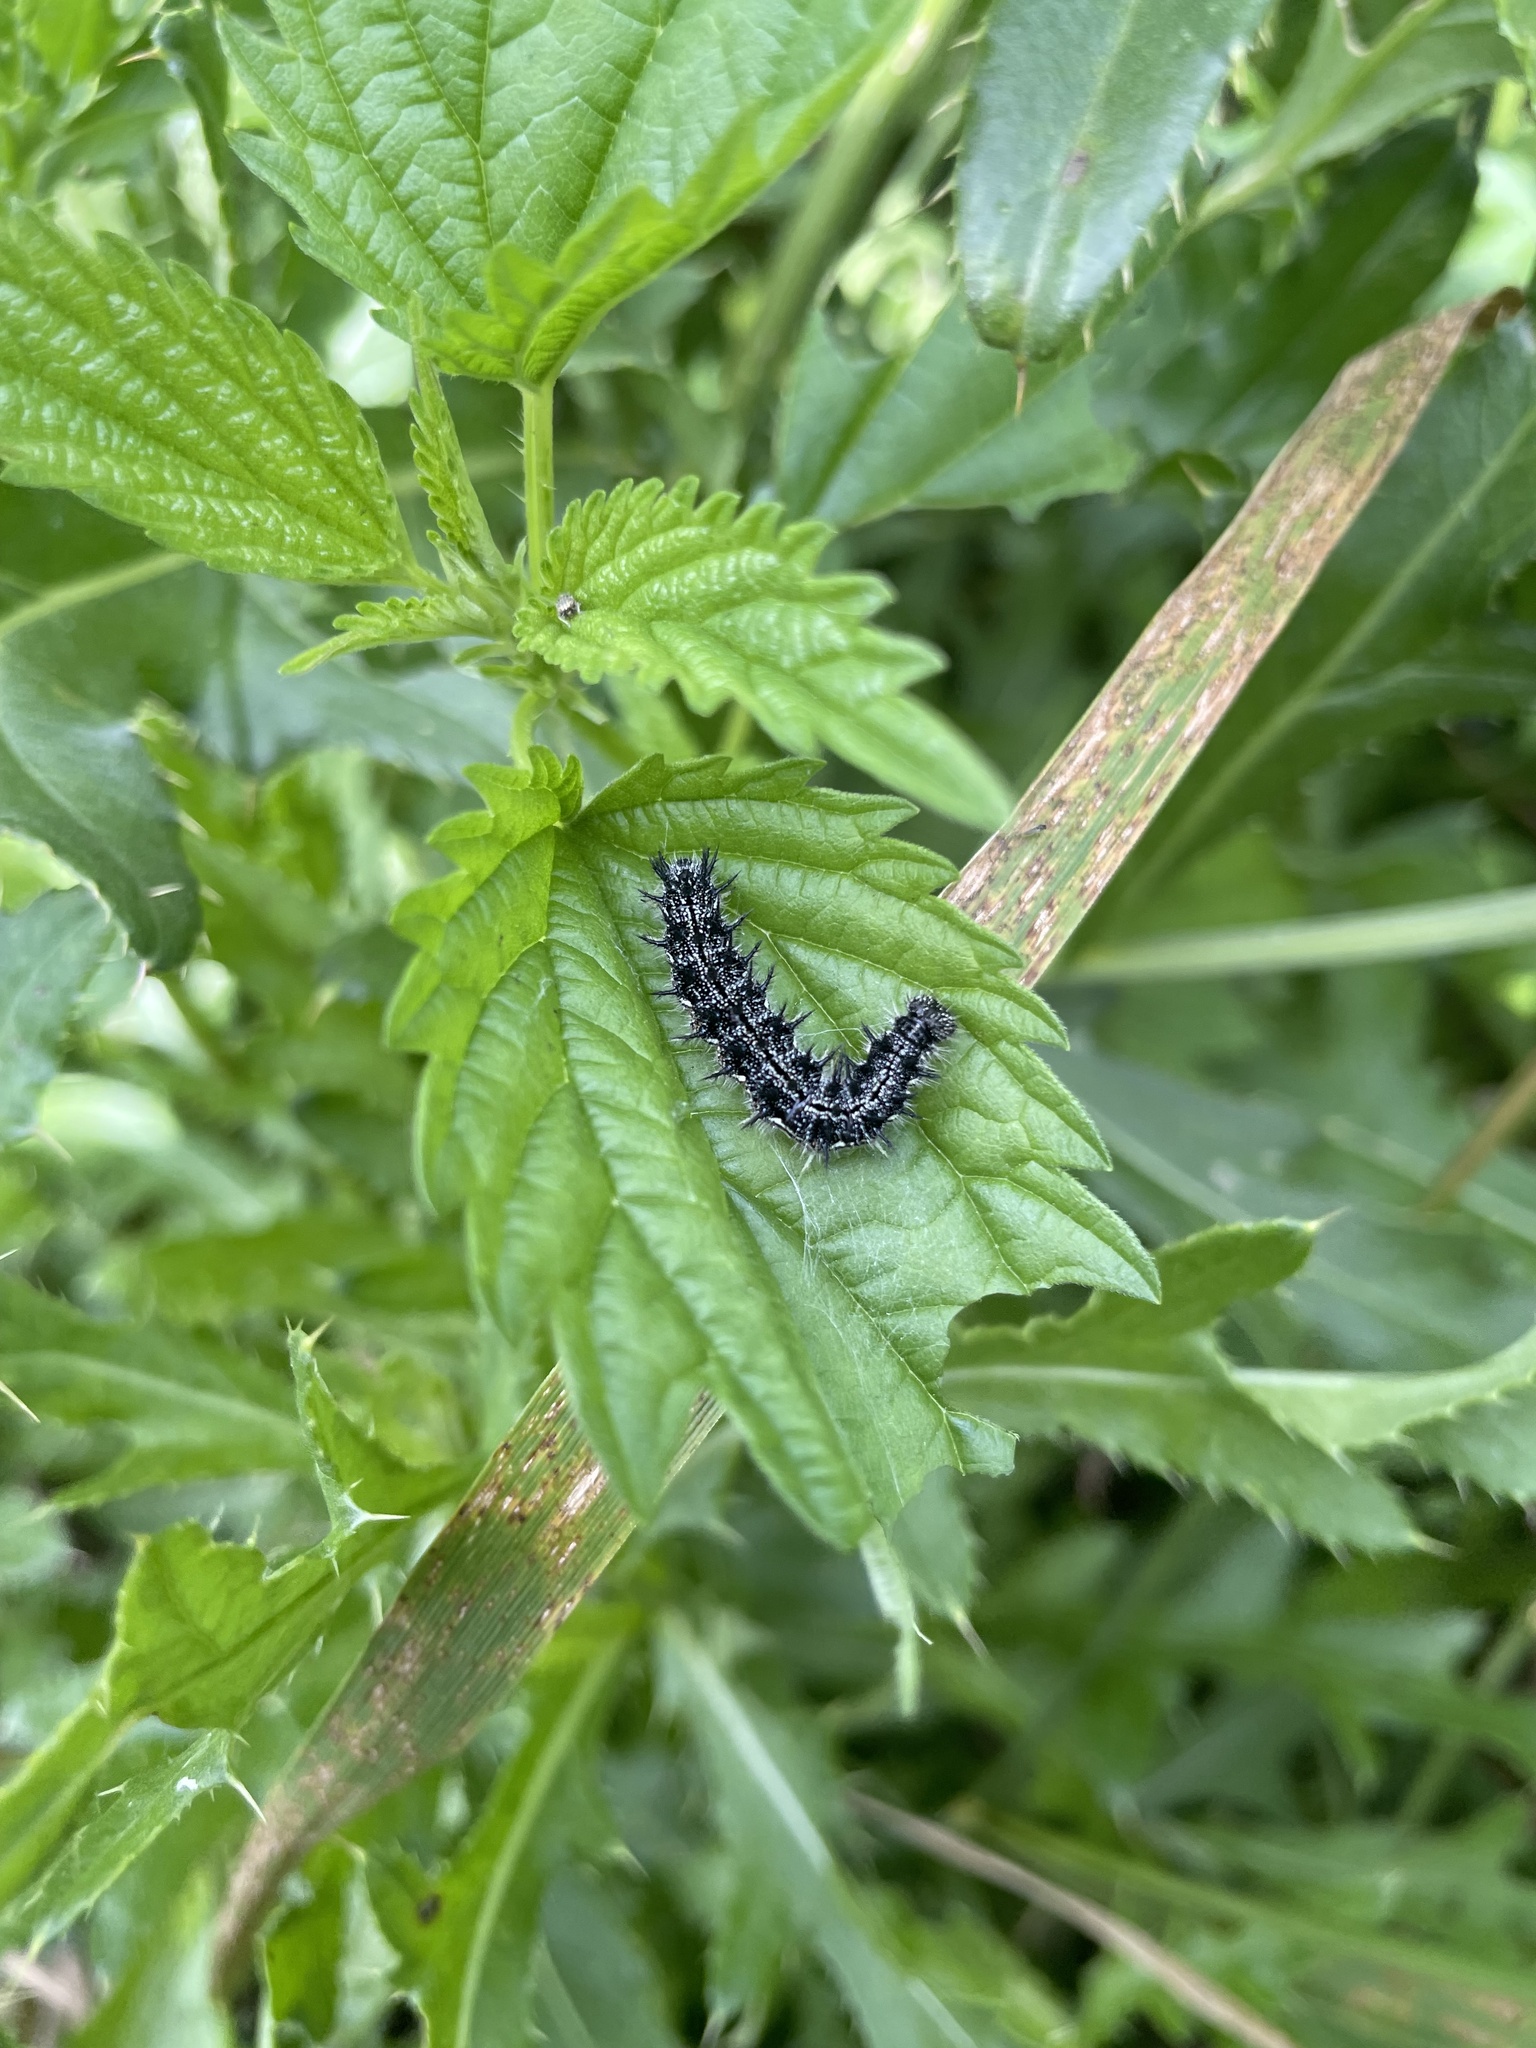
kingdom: Animalia
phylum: Arthropoda
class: Insecta
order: Lepidoptera
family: Nymphalidae
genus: Aglais
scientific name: Aglais milberti
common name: Milbert's tortoiseshell
